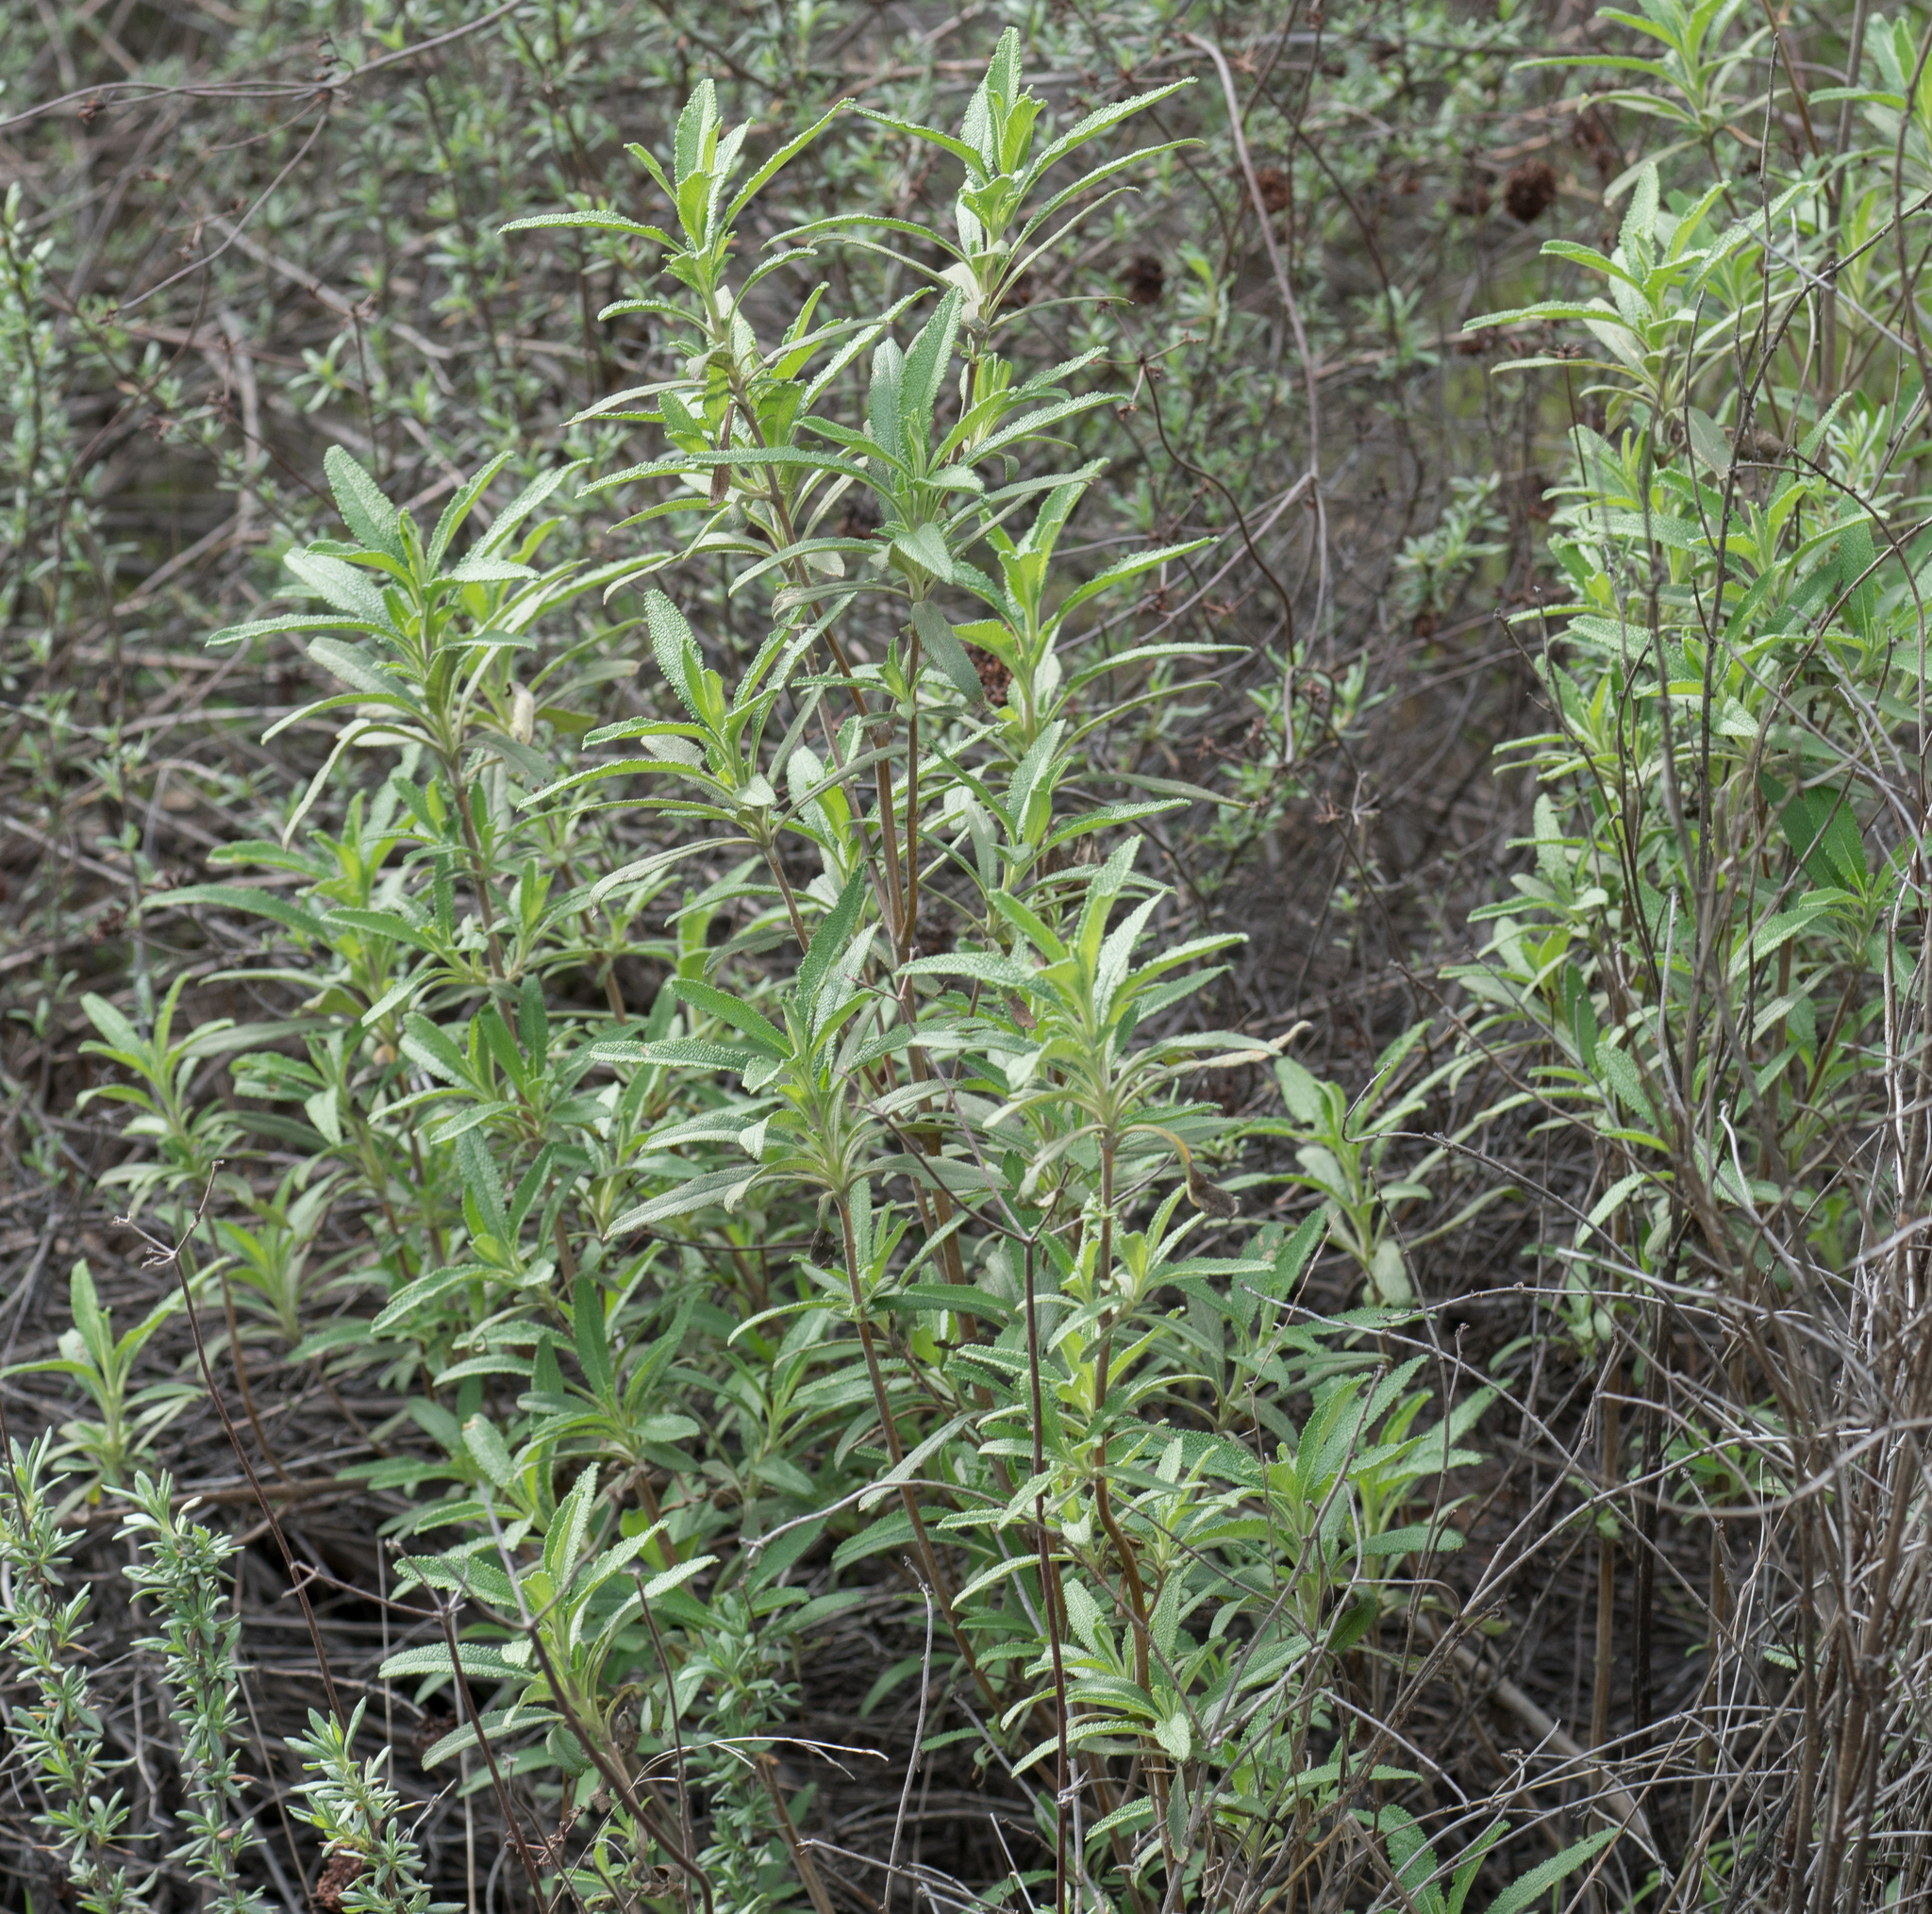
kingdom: Plantae
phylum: Tracheophyta
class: Magnoliopsida
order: Lamiales
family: Lamiaceae
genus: Salvia
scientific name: Salvia mellifera
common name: Black sage
